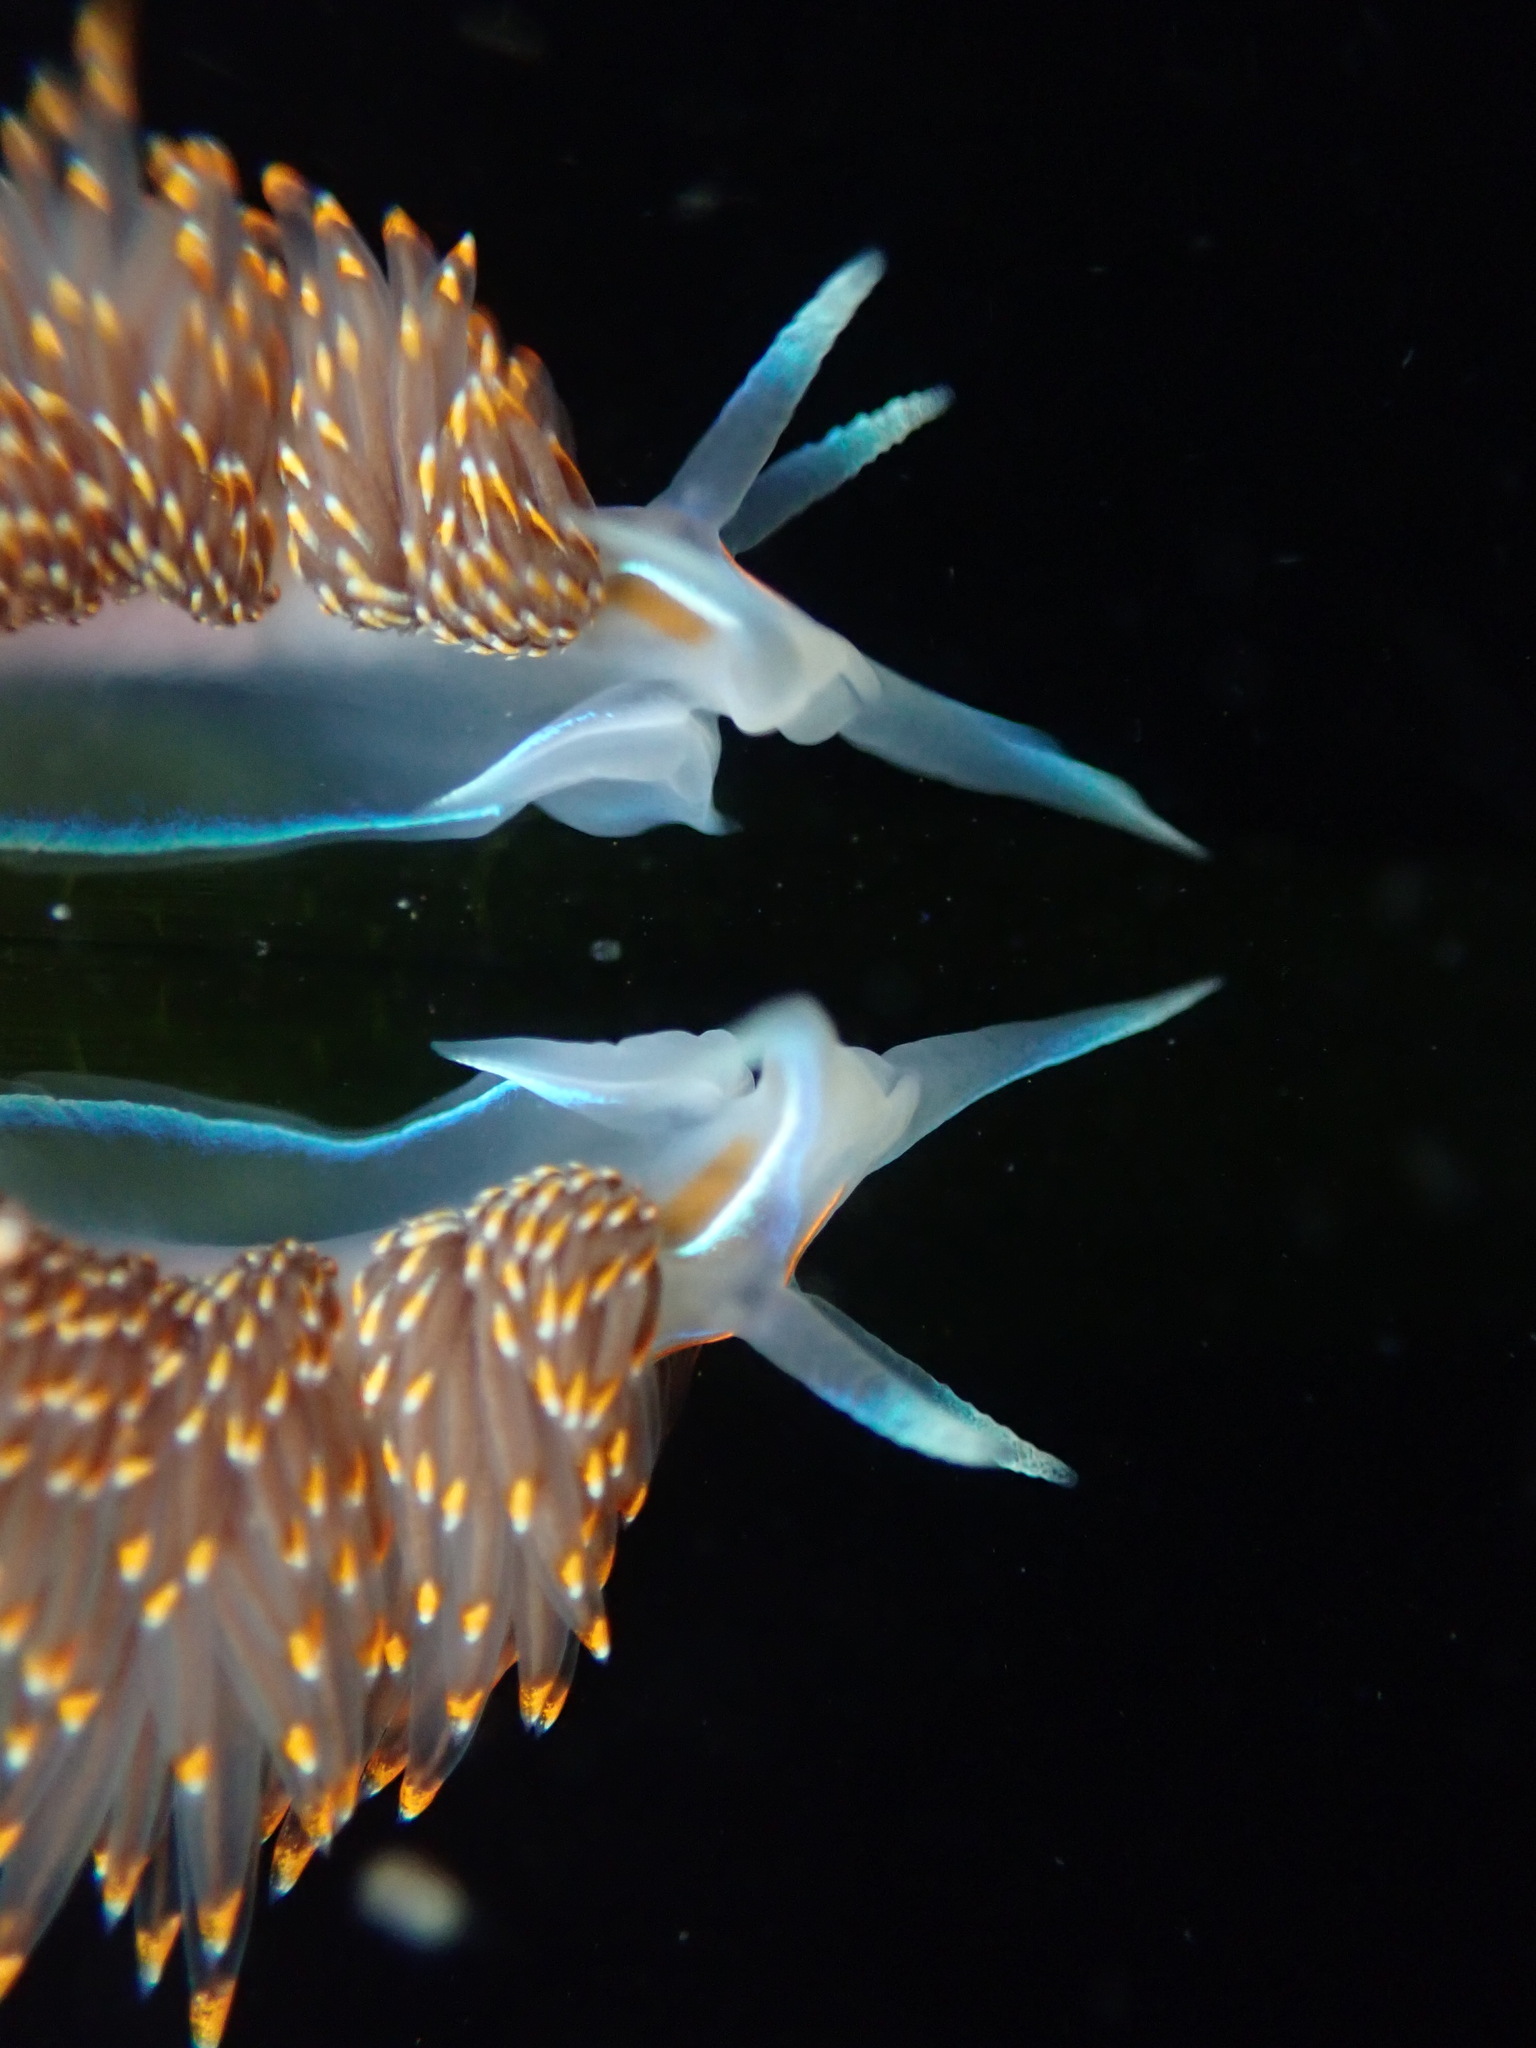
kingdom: Animalia
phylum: Mollusca
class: Gastropoda
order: Nudibranchia
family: Myrrhinidae
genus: Hermissenda
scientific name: Hermissenda opalescens
